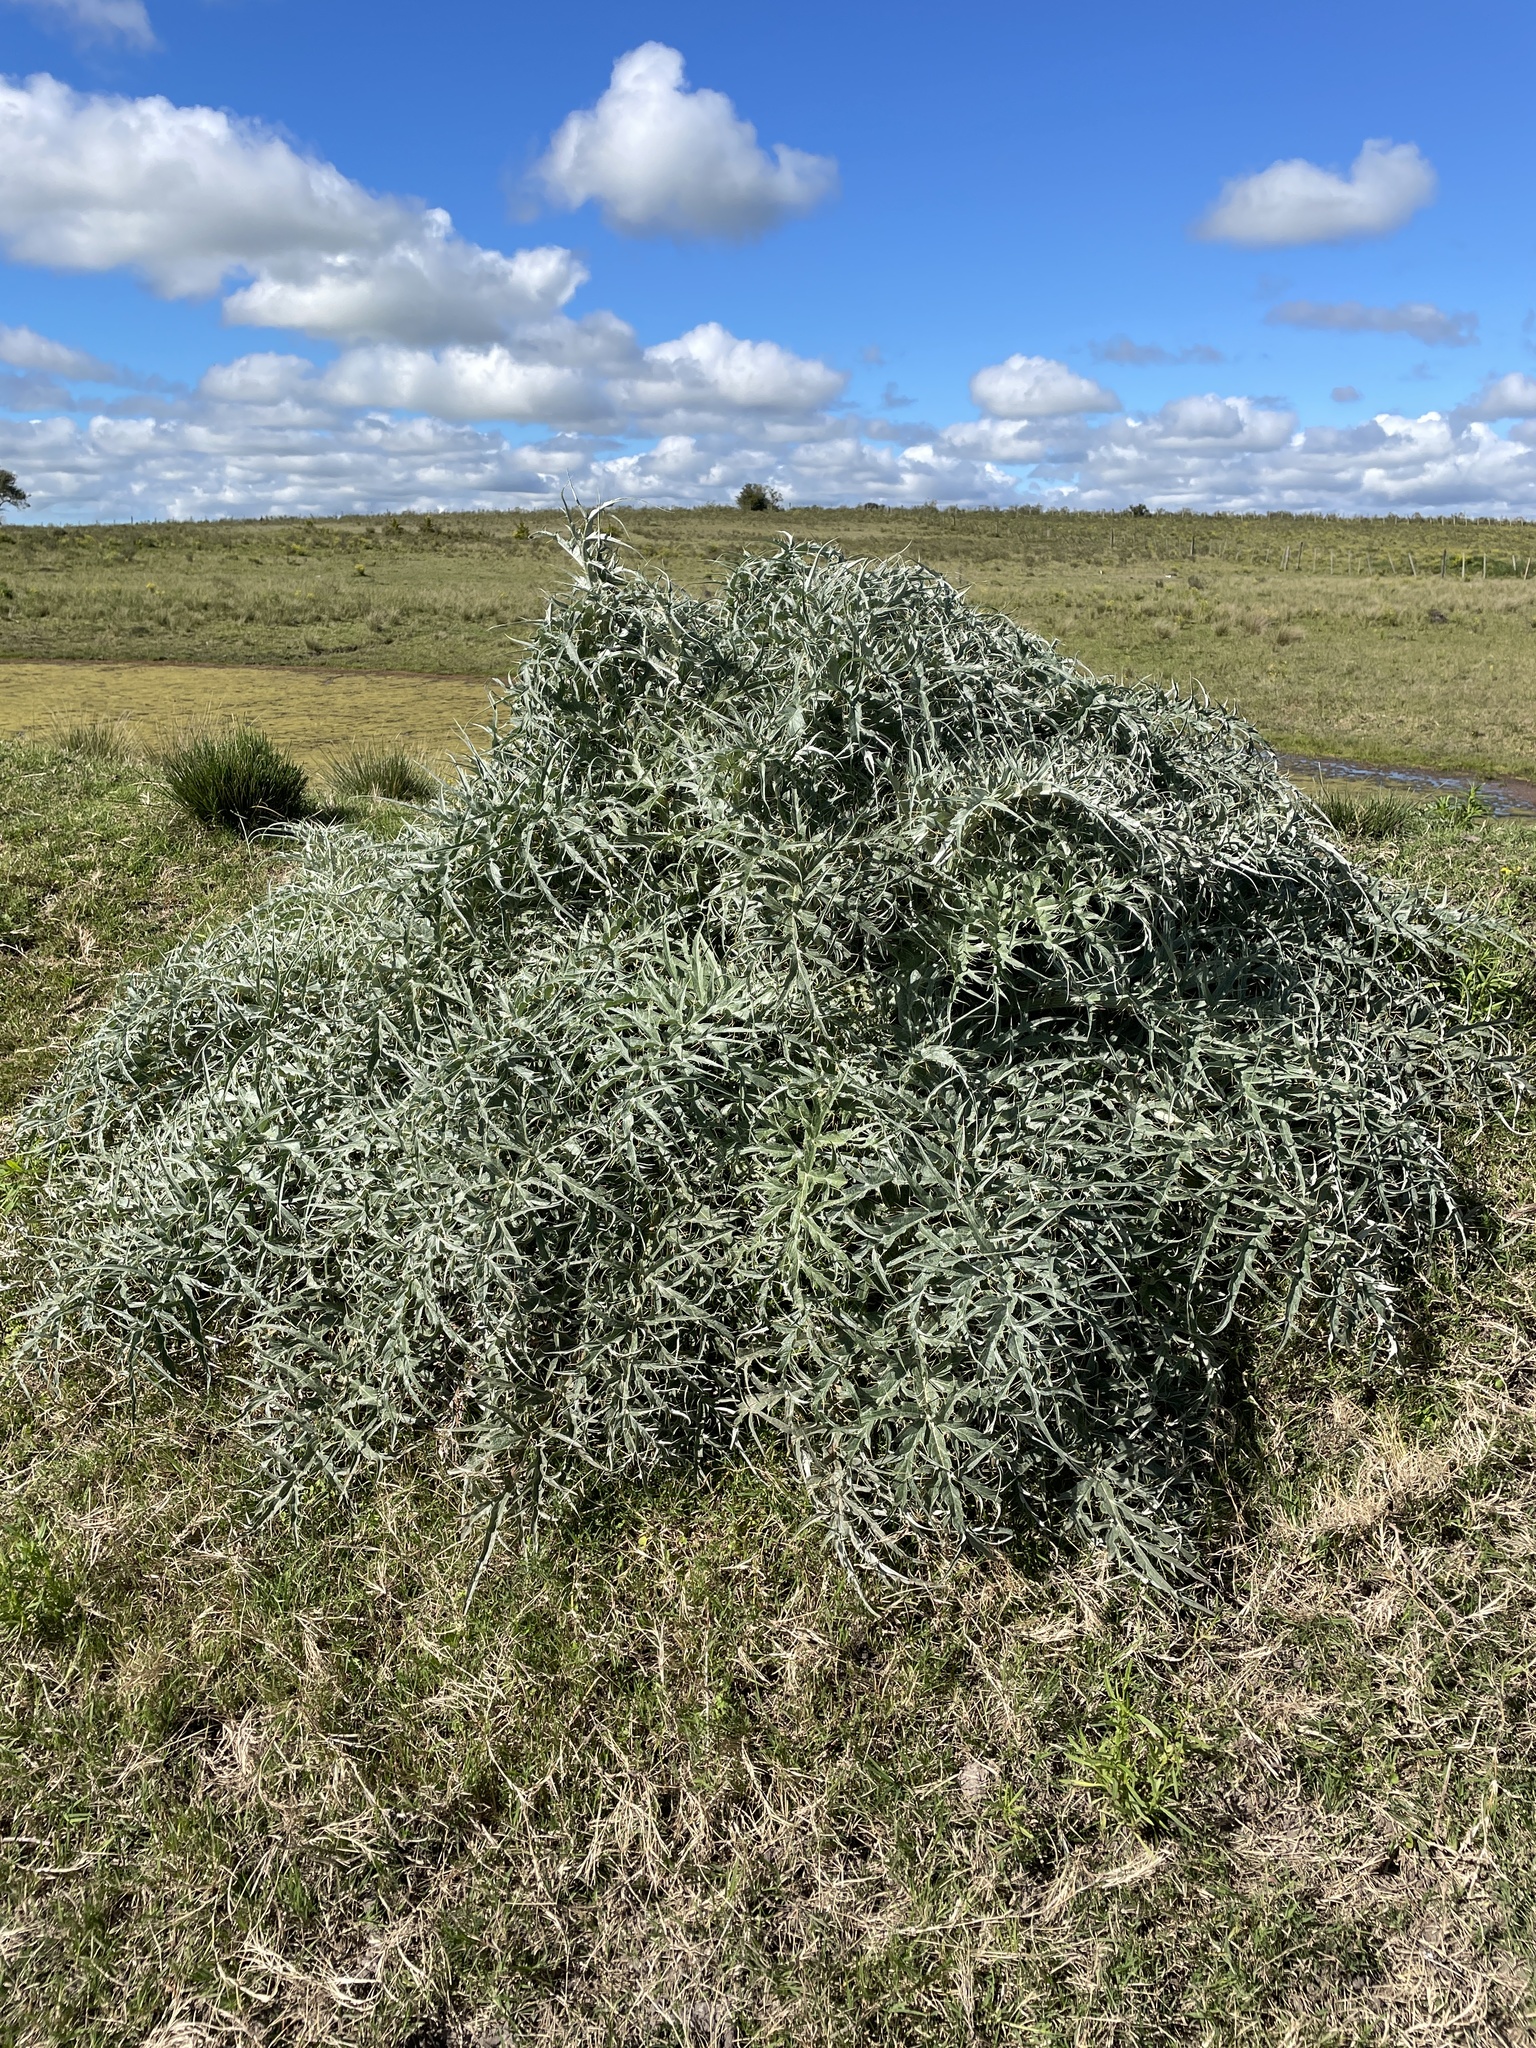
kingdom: Plantae
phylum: Tracheophyta
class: Magnoliopsida
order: Asterales
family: Asteraceae
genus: Cynara
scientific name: Cynara cardunculus
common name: Globe artichoke
